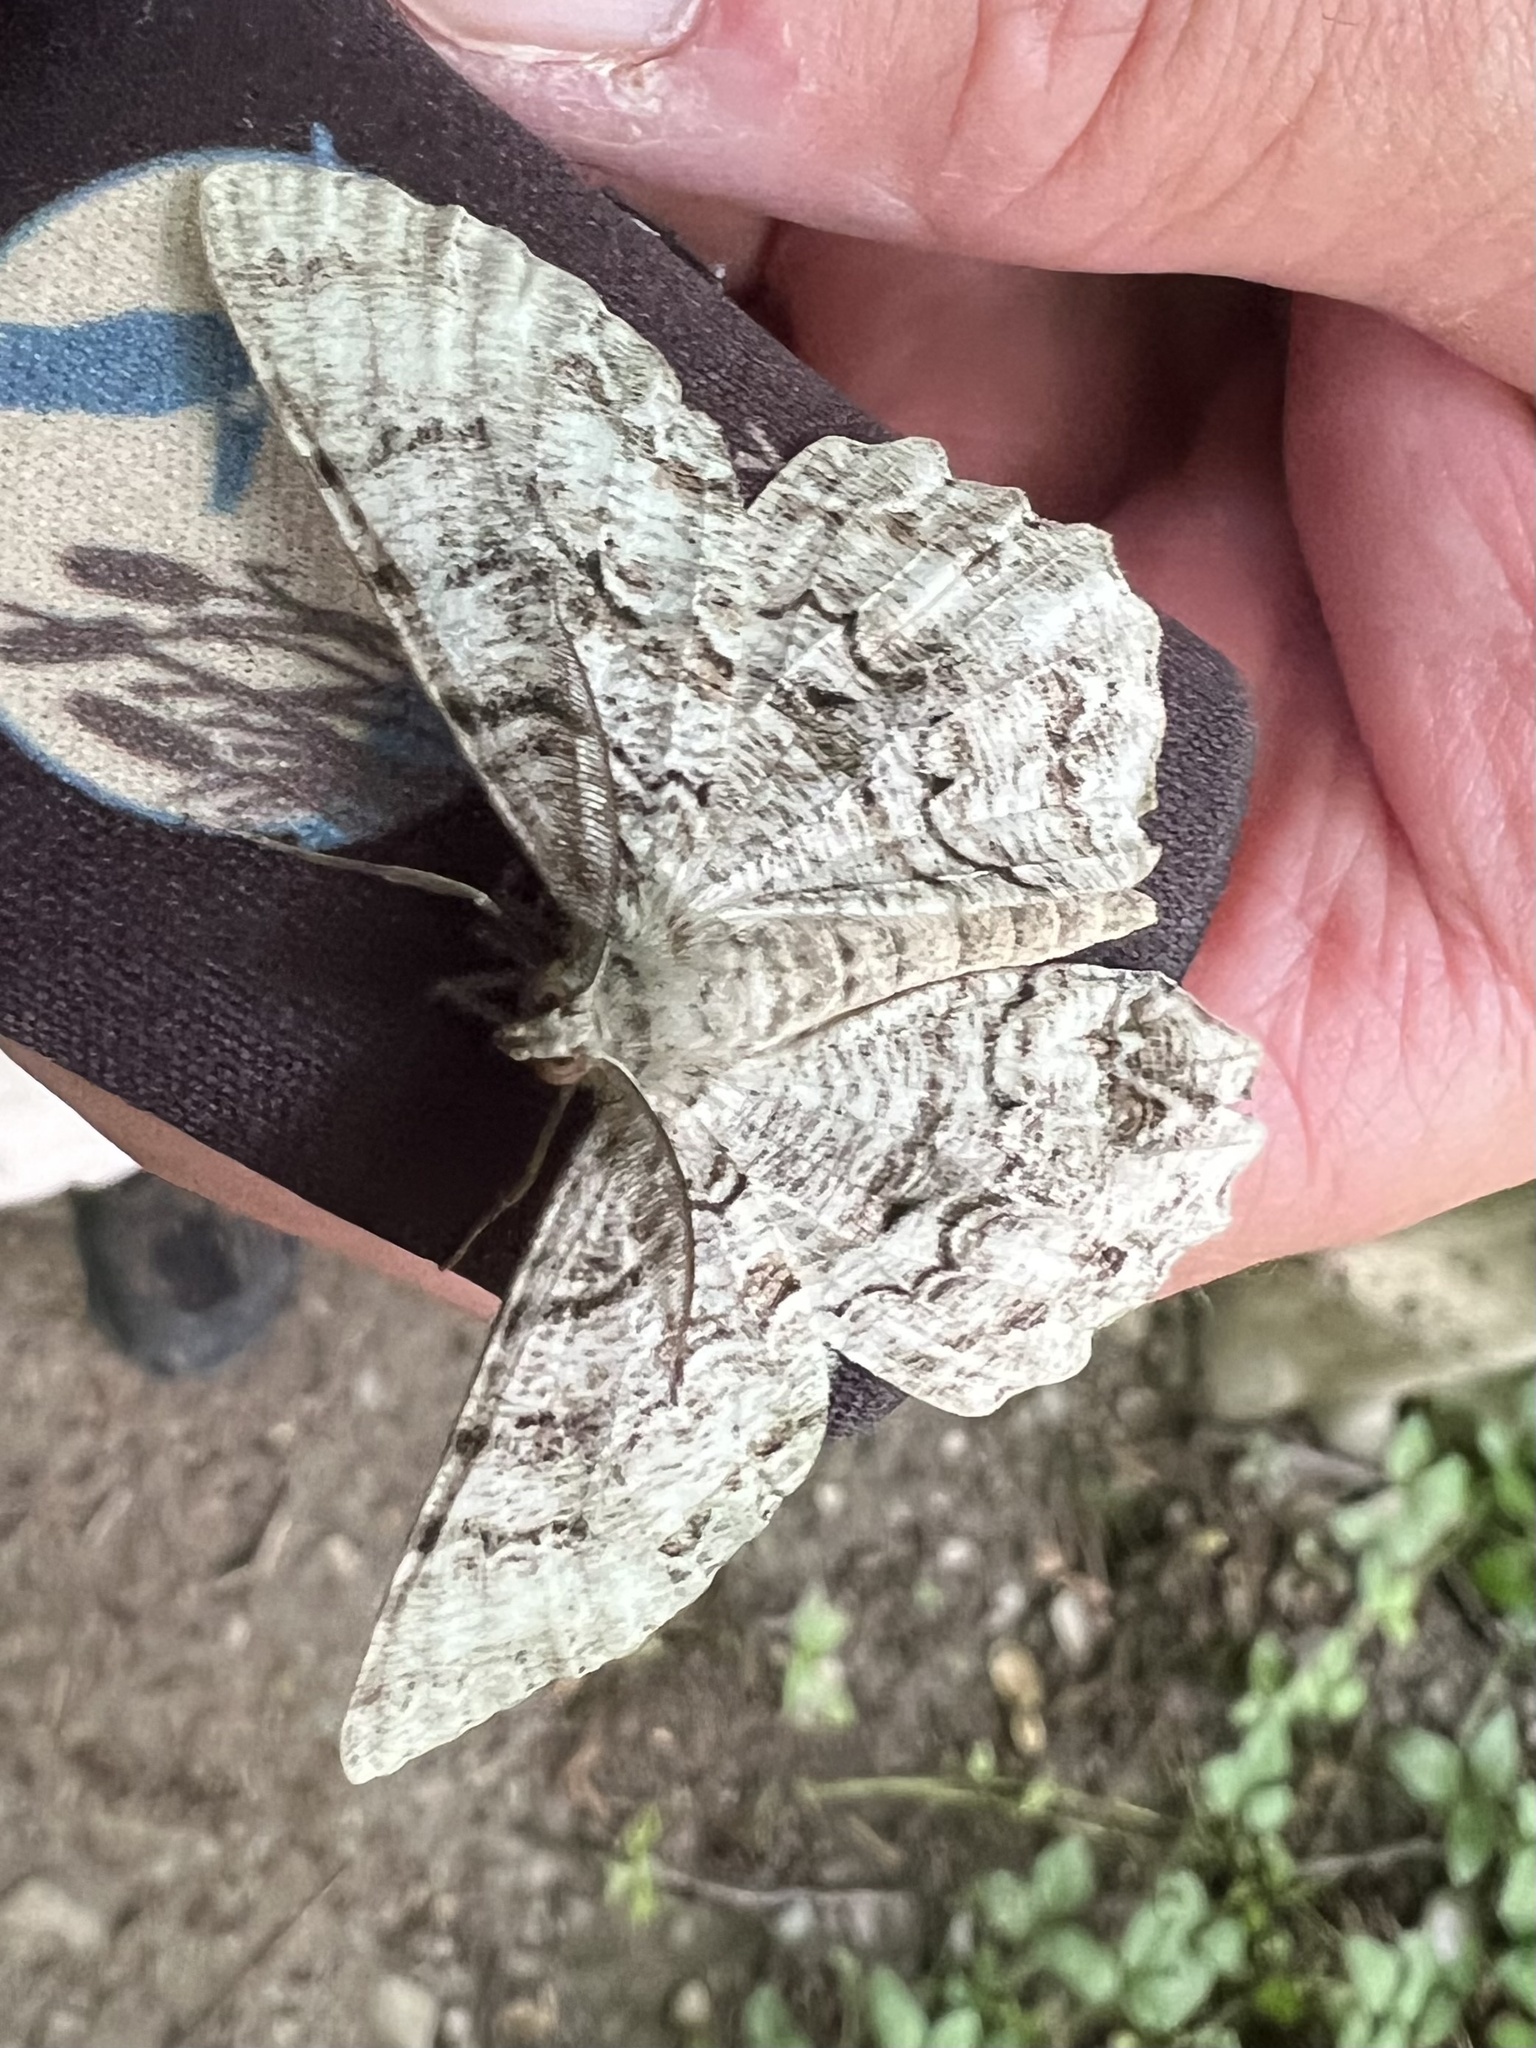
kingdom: Animalia
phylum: Arthropoda
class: Insecta
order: Lepidoptera
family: Geometridae
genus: Epimecis
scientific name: Epimecis hortaria
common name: Tulip-tree beauty
